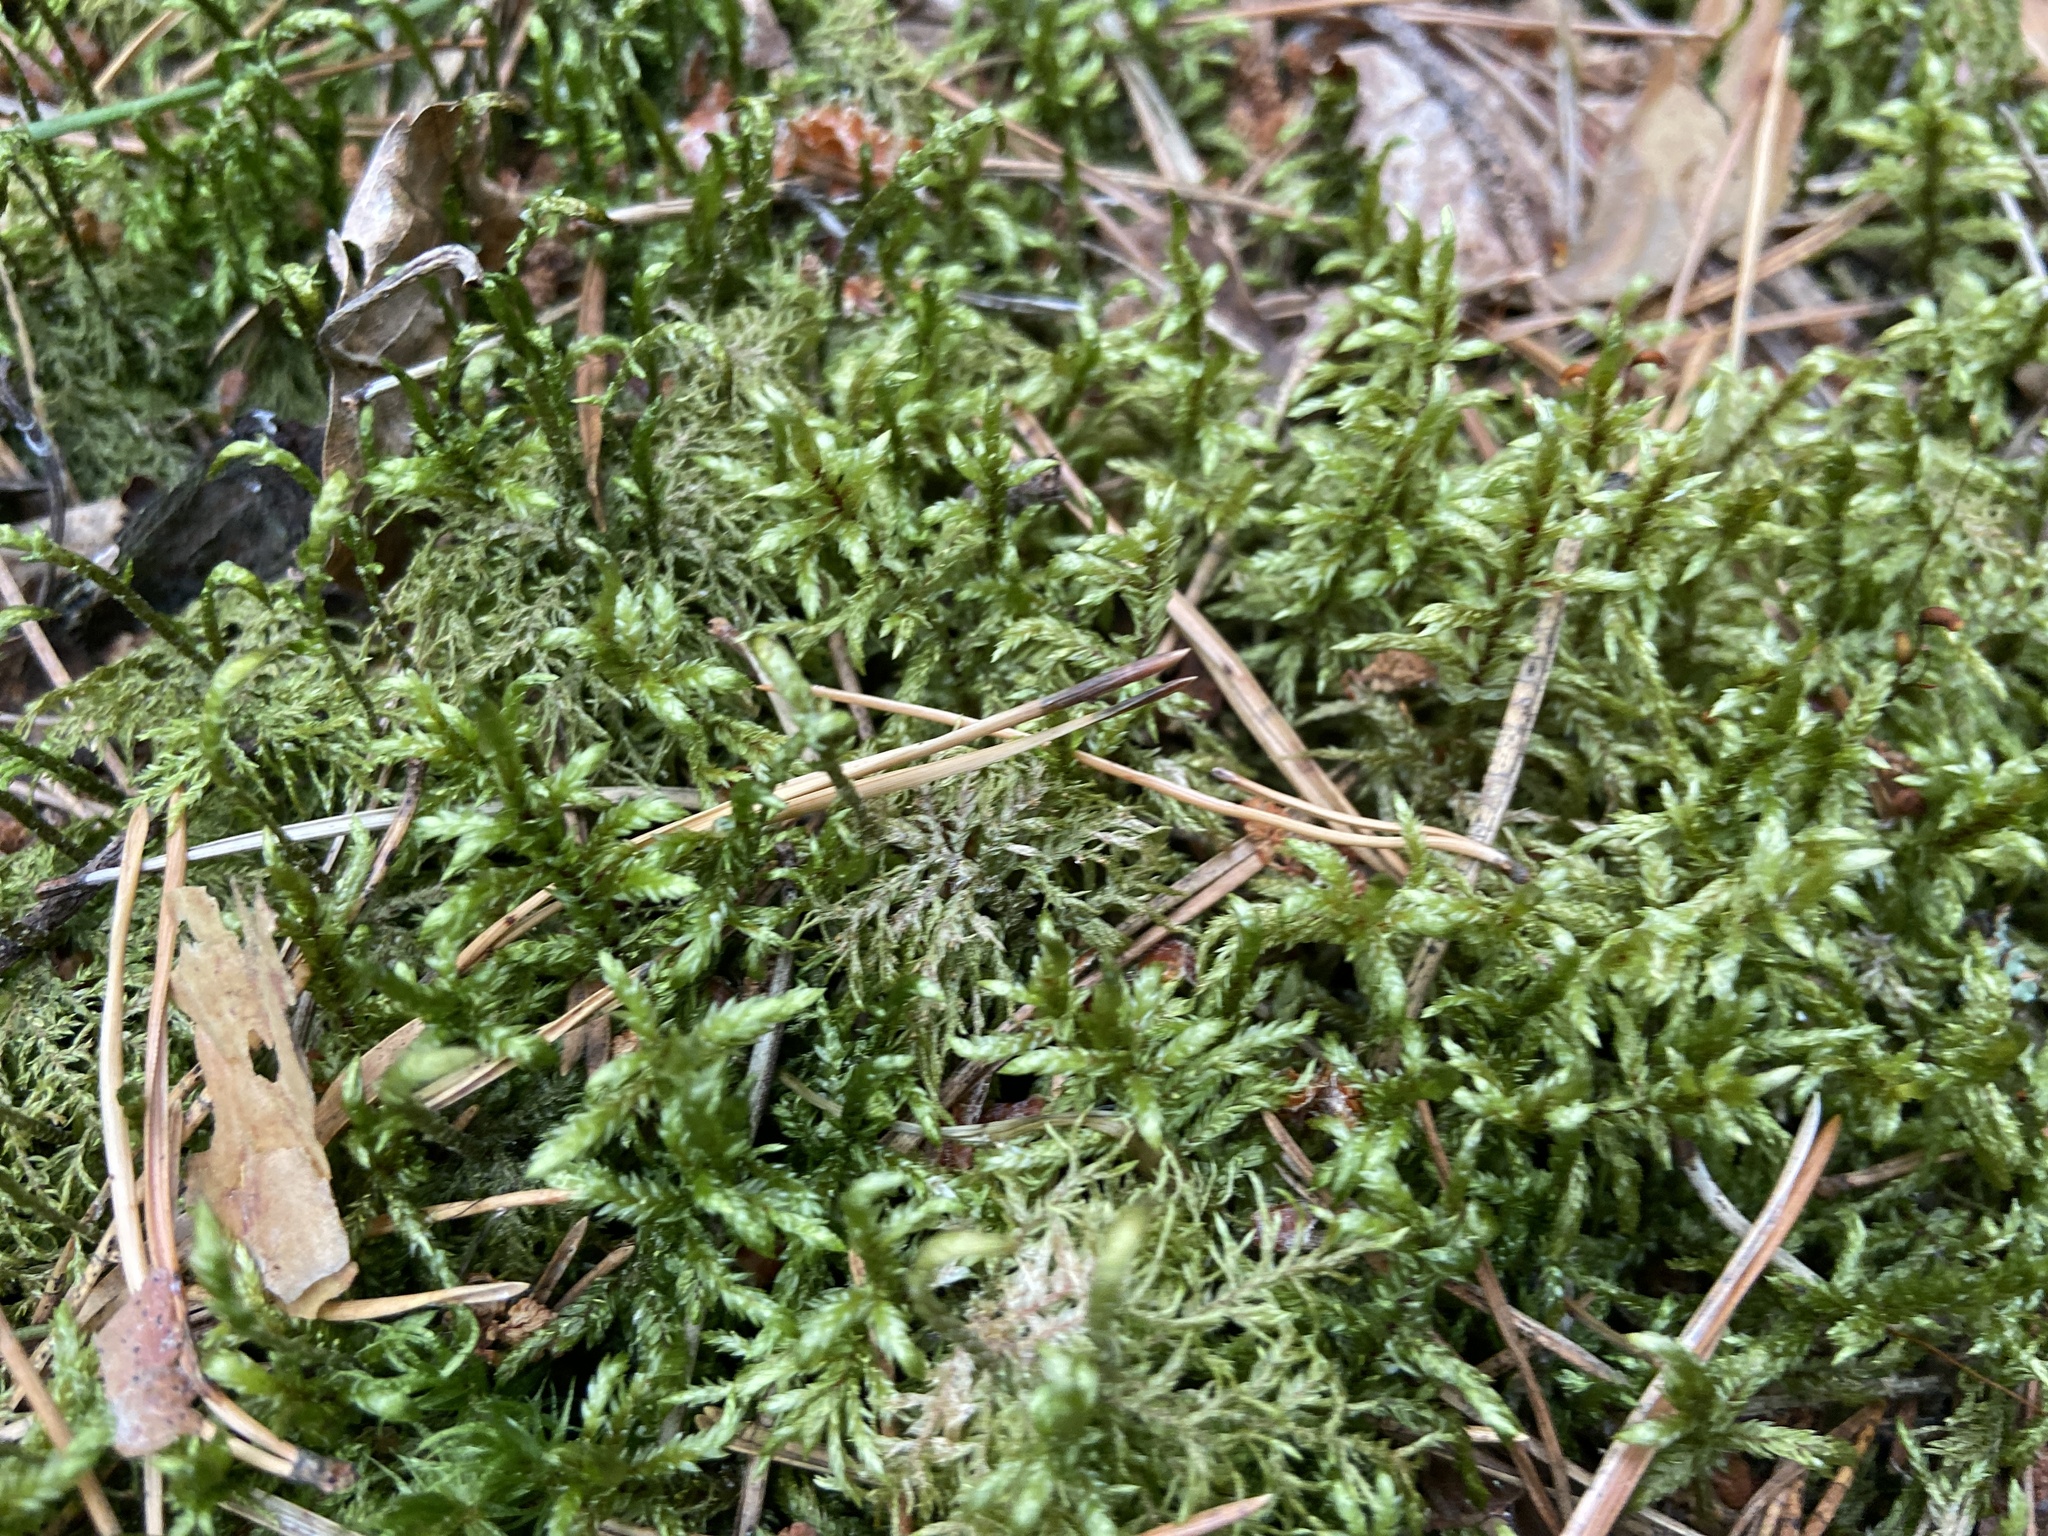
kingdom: Plantae
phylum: Bryophyta
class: Bryopsida
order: Hypnales
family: Hylocomiaceae
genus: Pleurozium
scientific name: Pleurozium schreberi
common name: Red-stemmed feather moss
